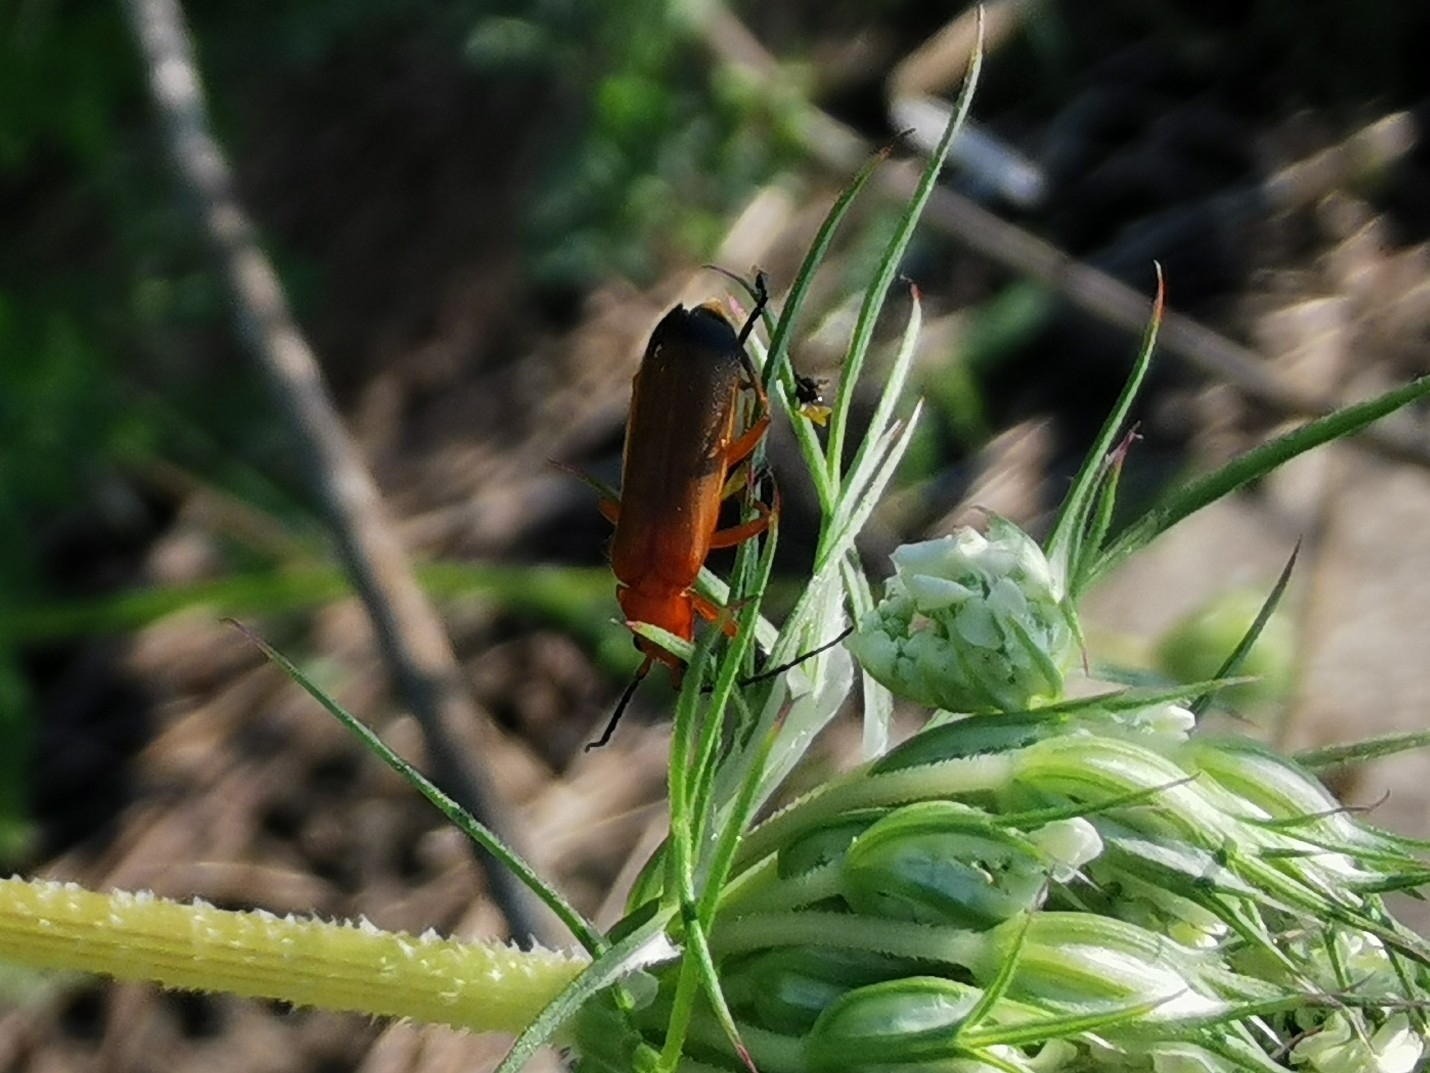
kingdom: Animalia
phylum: Arthropoda
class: Insecta
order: Coleoptera
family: Cantharidae
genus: Rhagonycha
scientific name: Rhagonycha fulva
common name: Common red soldier beetle
